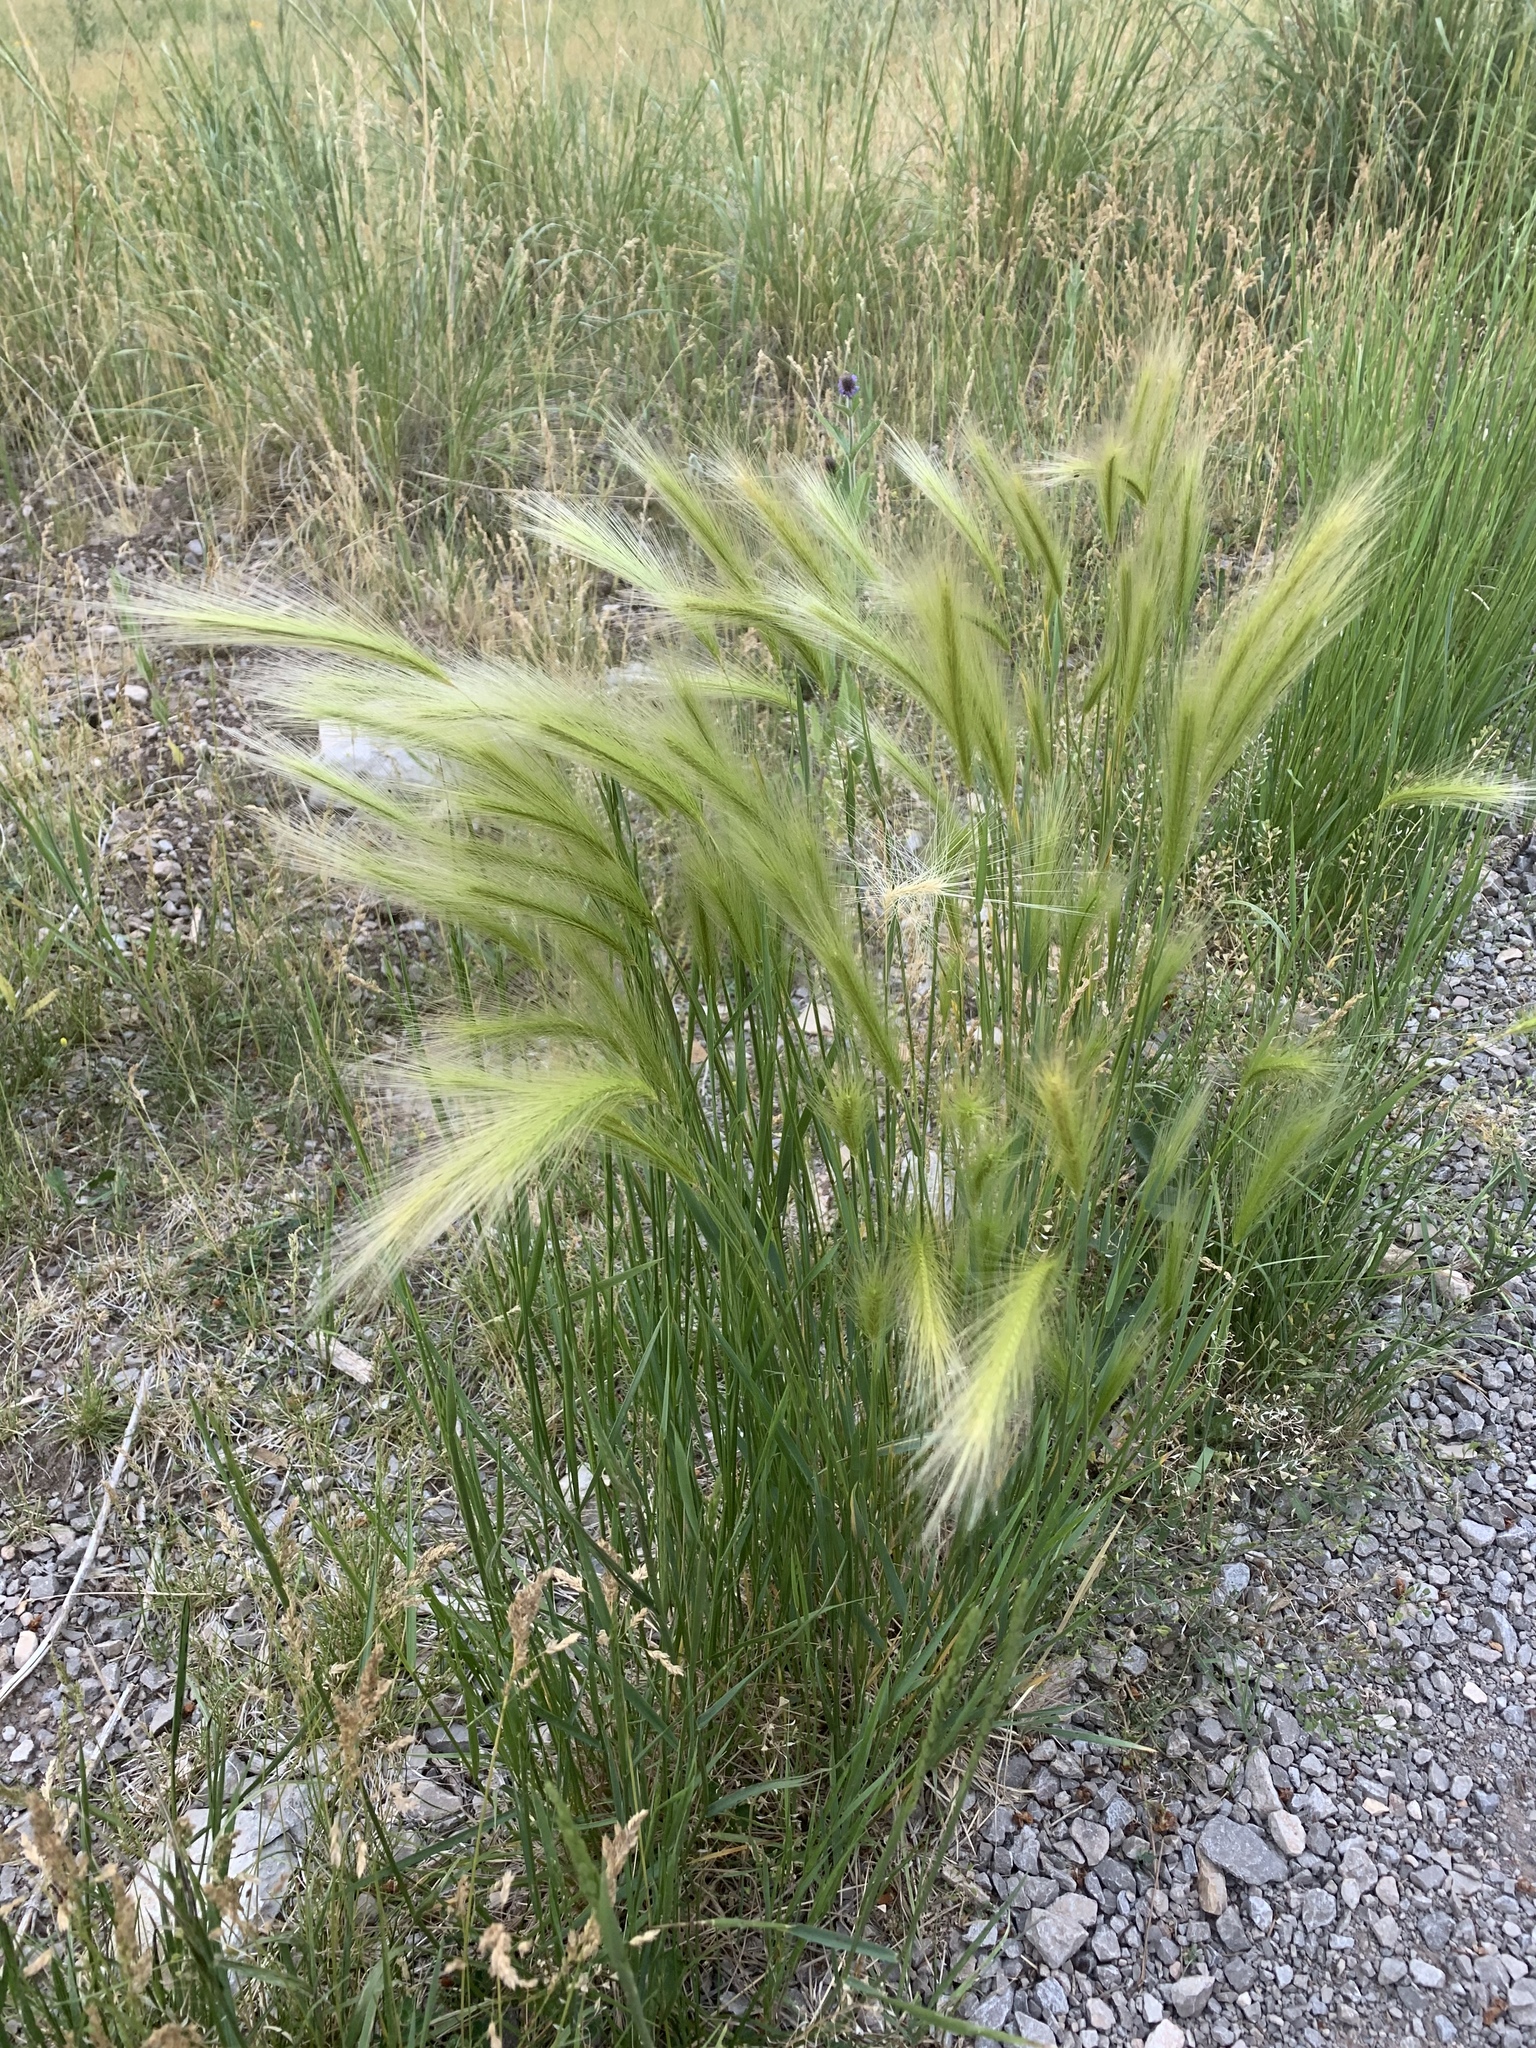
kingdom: Plantae
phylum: Tracheophyta
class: Liliopsida
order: Poales
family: Poaceae
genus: Hordeum
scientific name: Hordeum jubatum
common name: Foxtail barley
